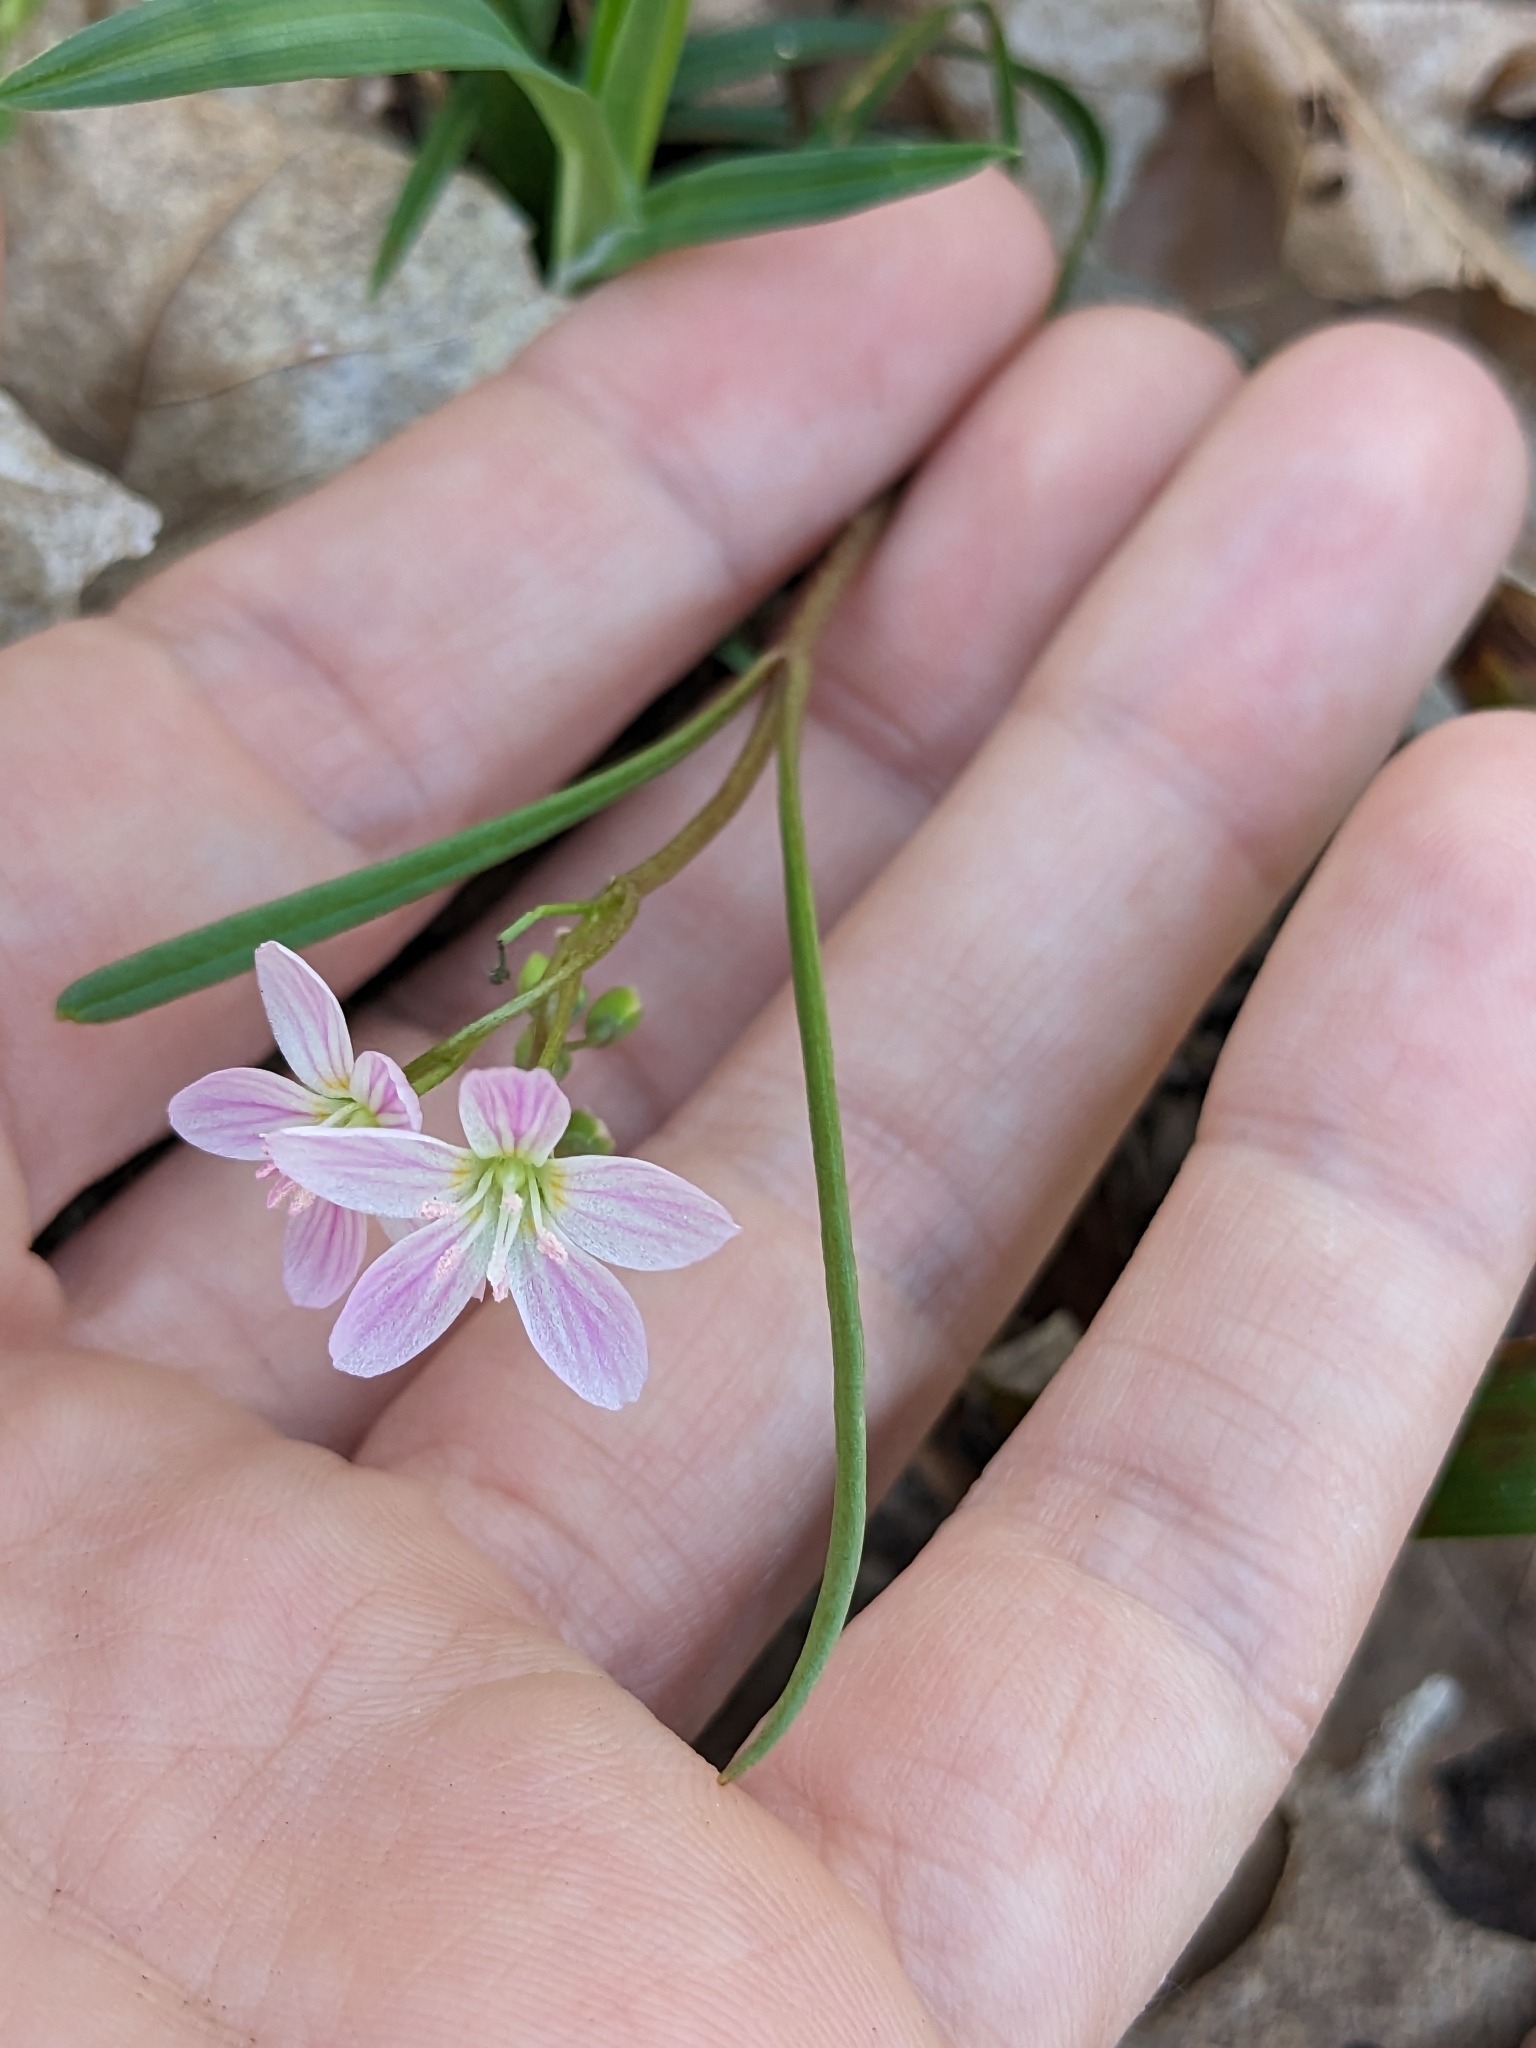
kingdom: Plantae
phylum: Tracheophyta
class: Magnoliopsida
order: Caryophyllales
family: Montiaceae
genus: Claytonia
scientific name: Claytonia virginica
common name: Virginia springbeauty
